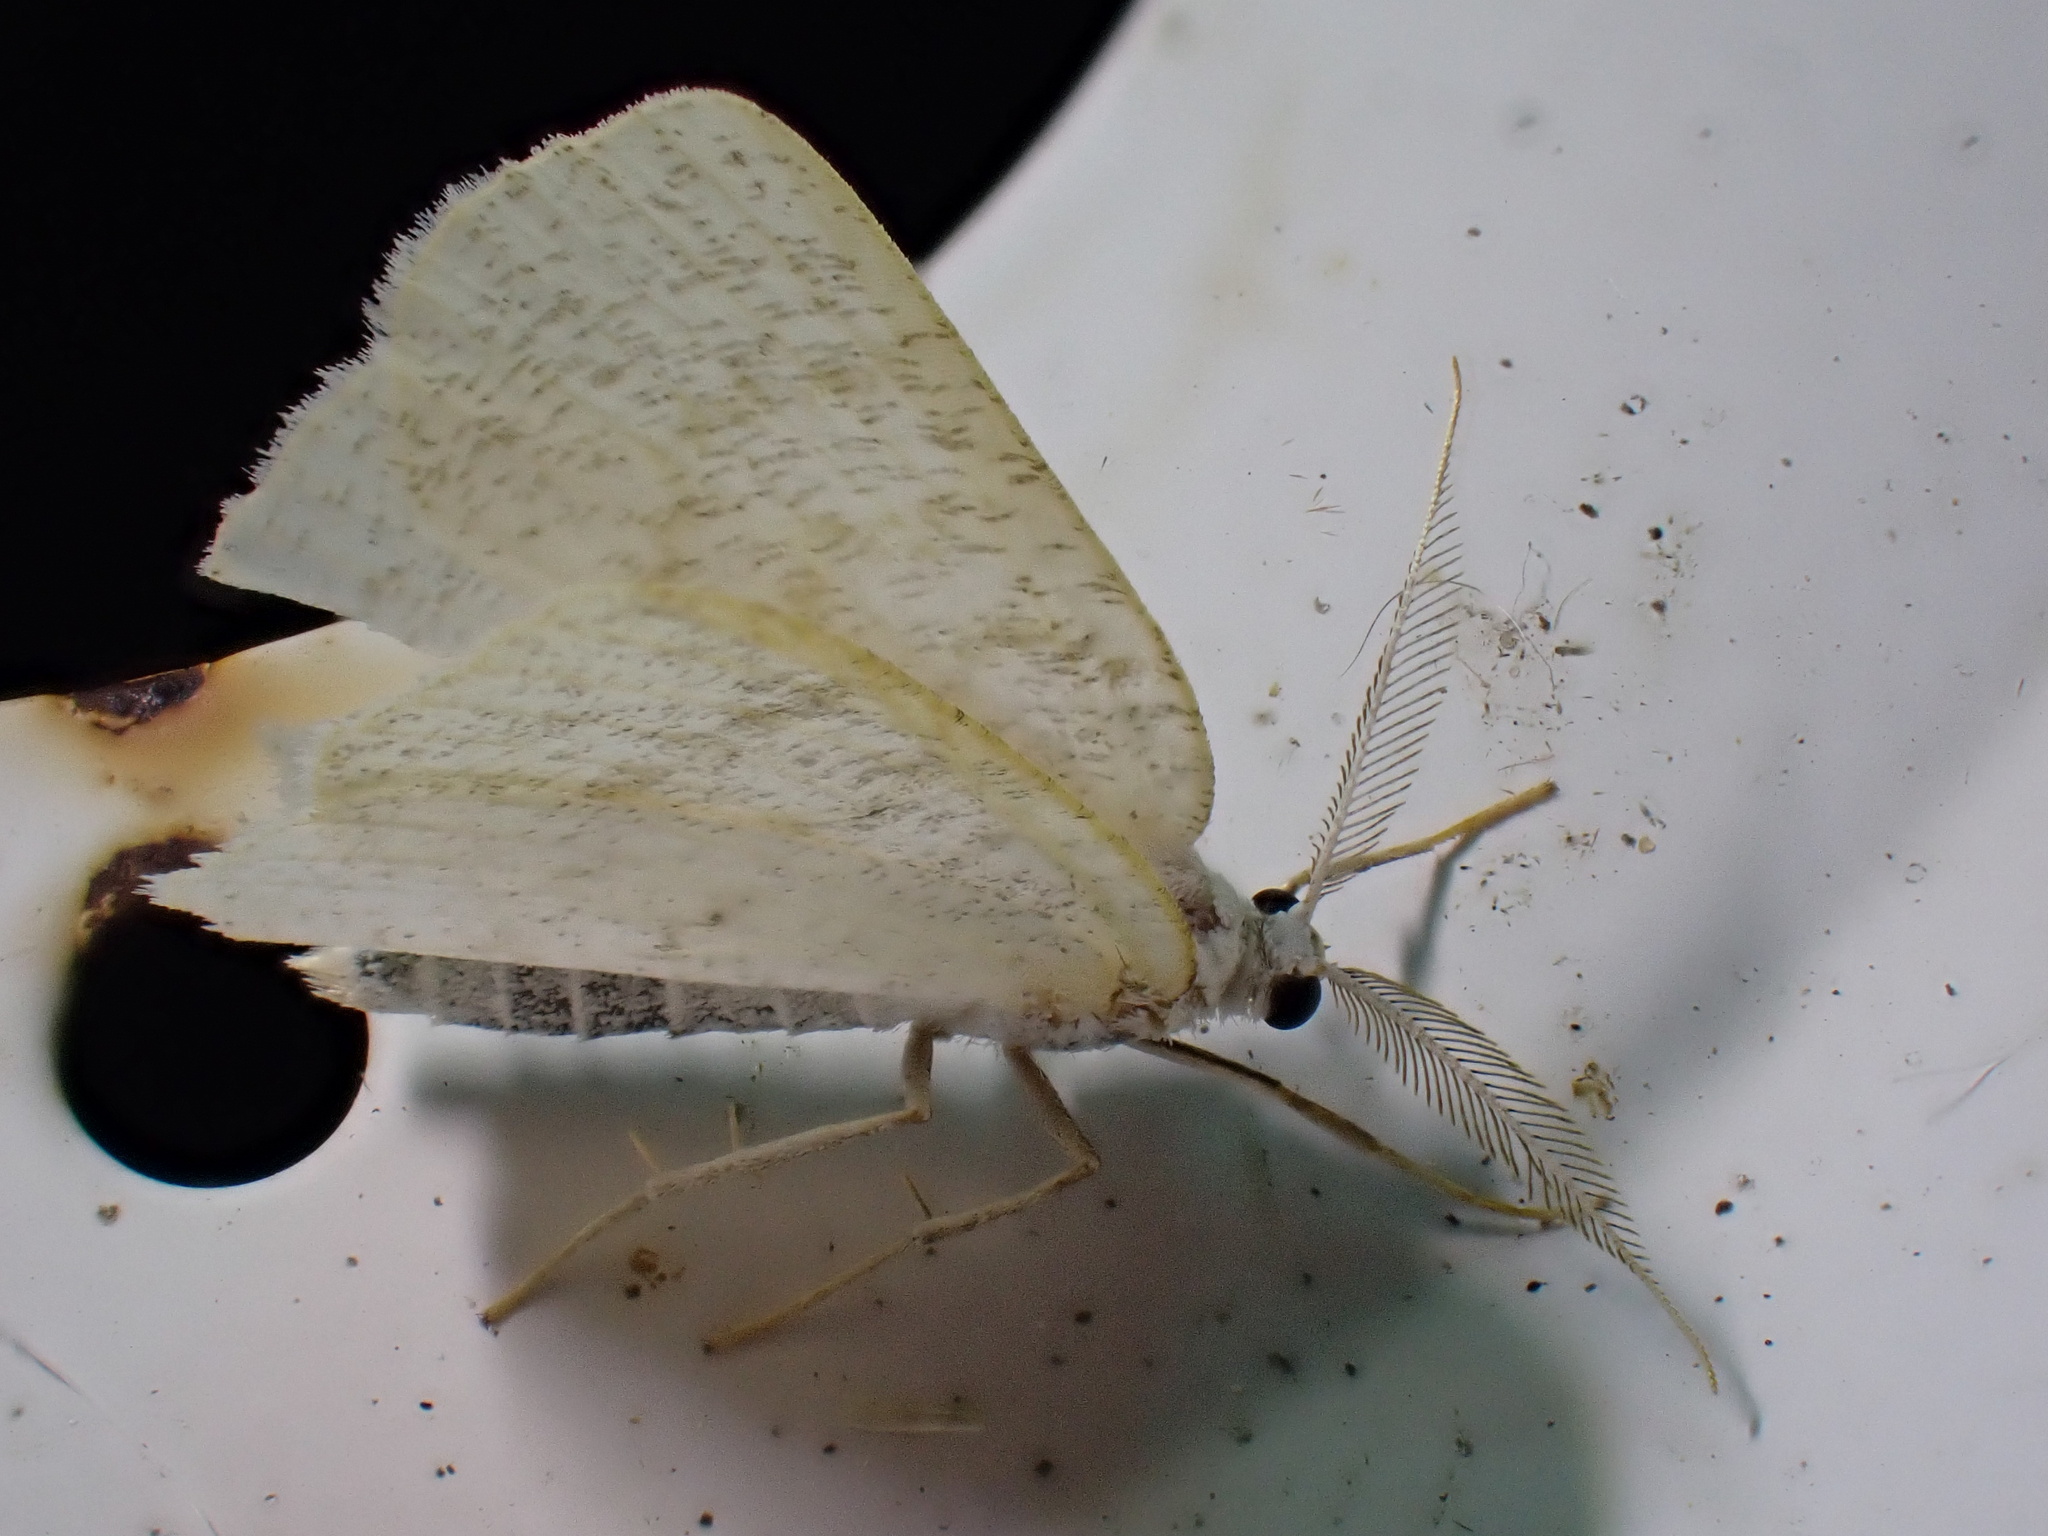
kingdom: Animalia
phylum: Arthropoda
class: Insecta
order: Lepidoptera
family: Geometridae
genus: Cabera
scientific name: Cabera exanthemata
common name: Common wave
